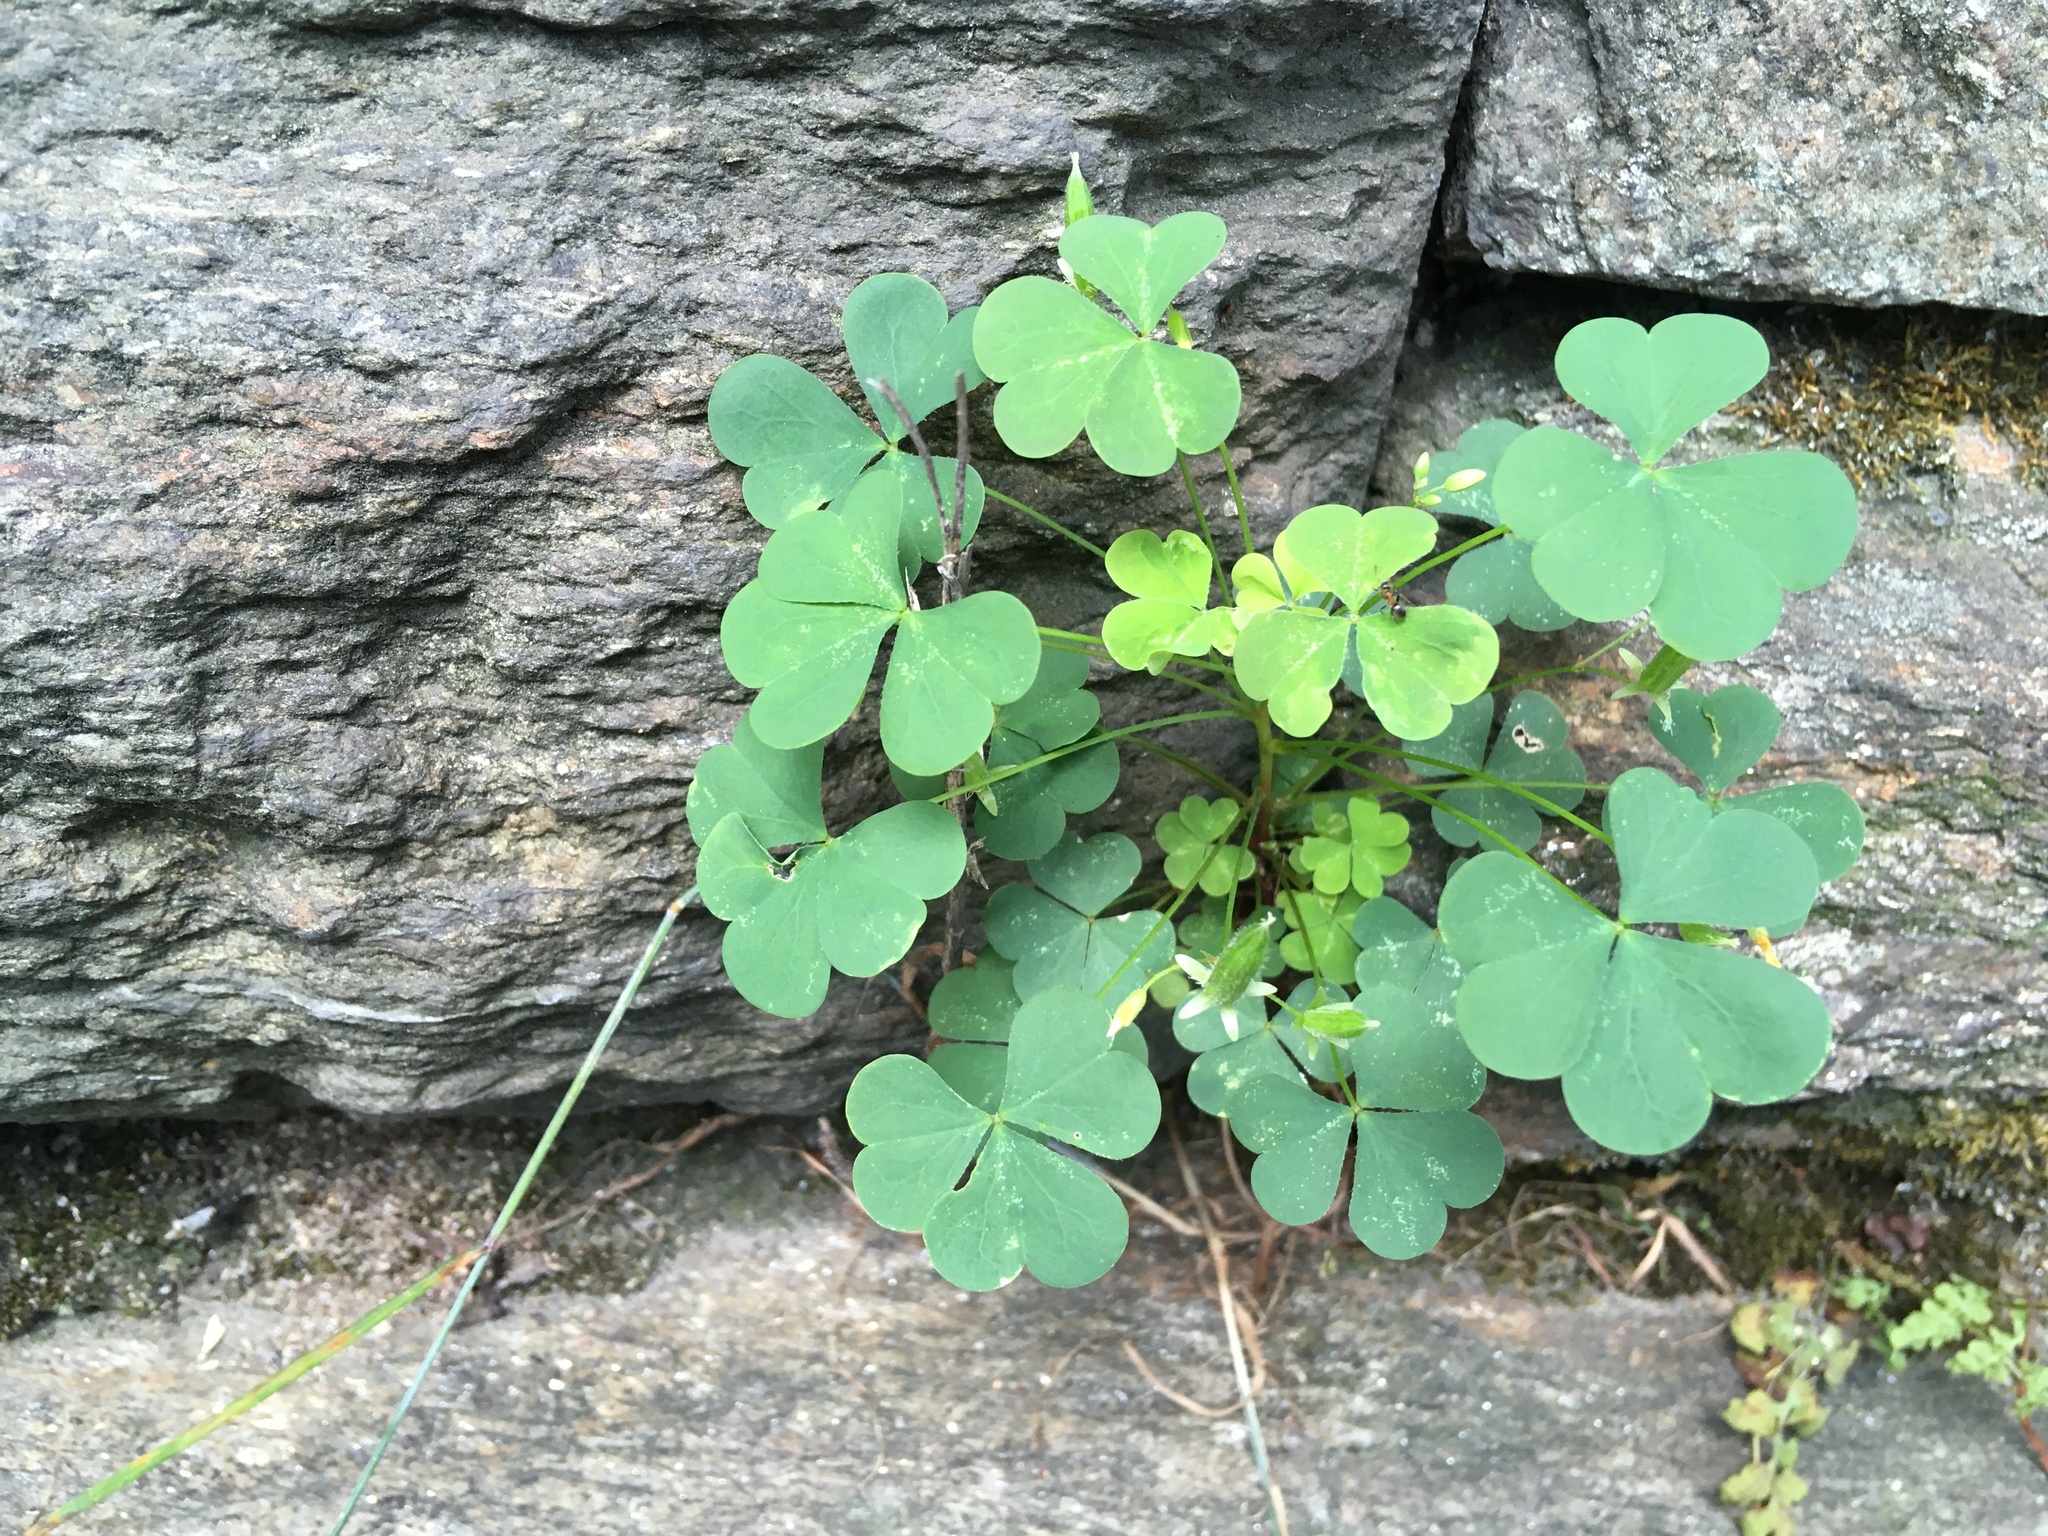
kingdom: Plantae
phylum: Tracheophyta
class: Magnoliopsida
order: Oxalidales
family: Oxalidaceae
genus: Oxalis
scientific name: Oxalis corniculata
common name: Procumbent yellow-sorrel
